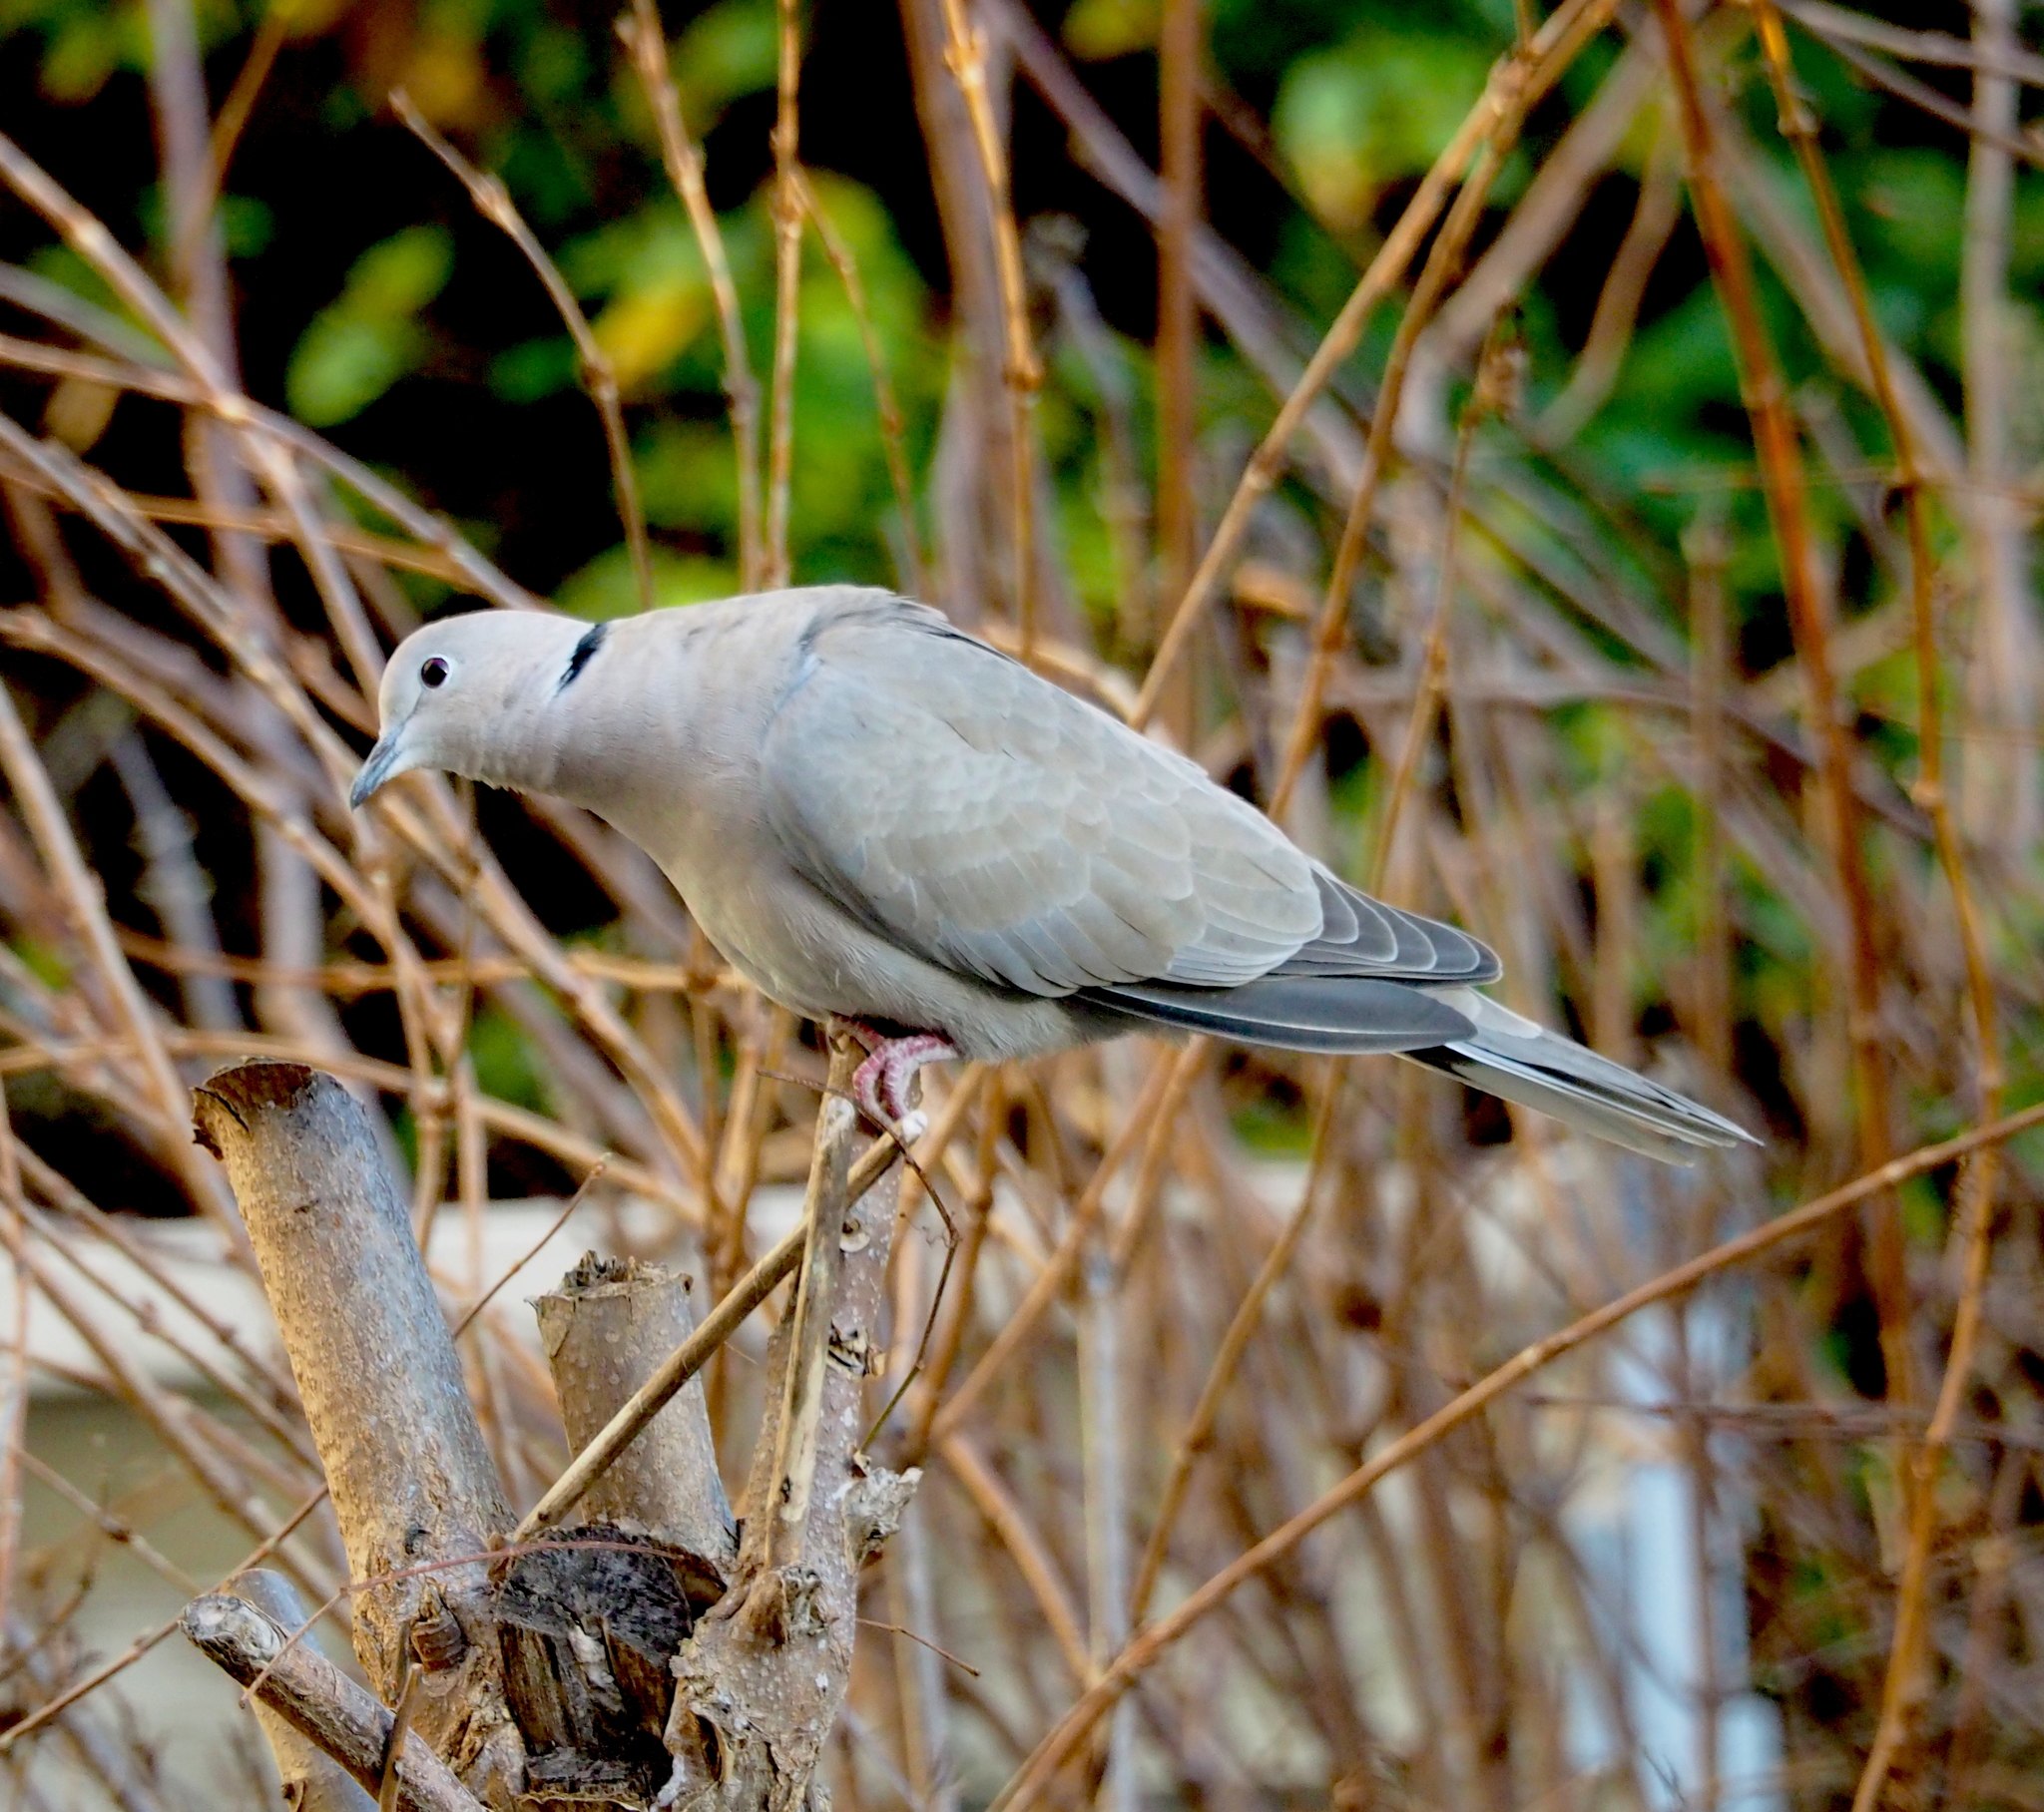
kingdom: Animalia
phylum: Chordata
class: Aves
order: Columbiformes
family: Columbidae
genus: Streptopelia
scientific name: Streptopelia decaocto
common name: Eurasian collared dove
